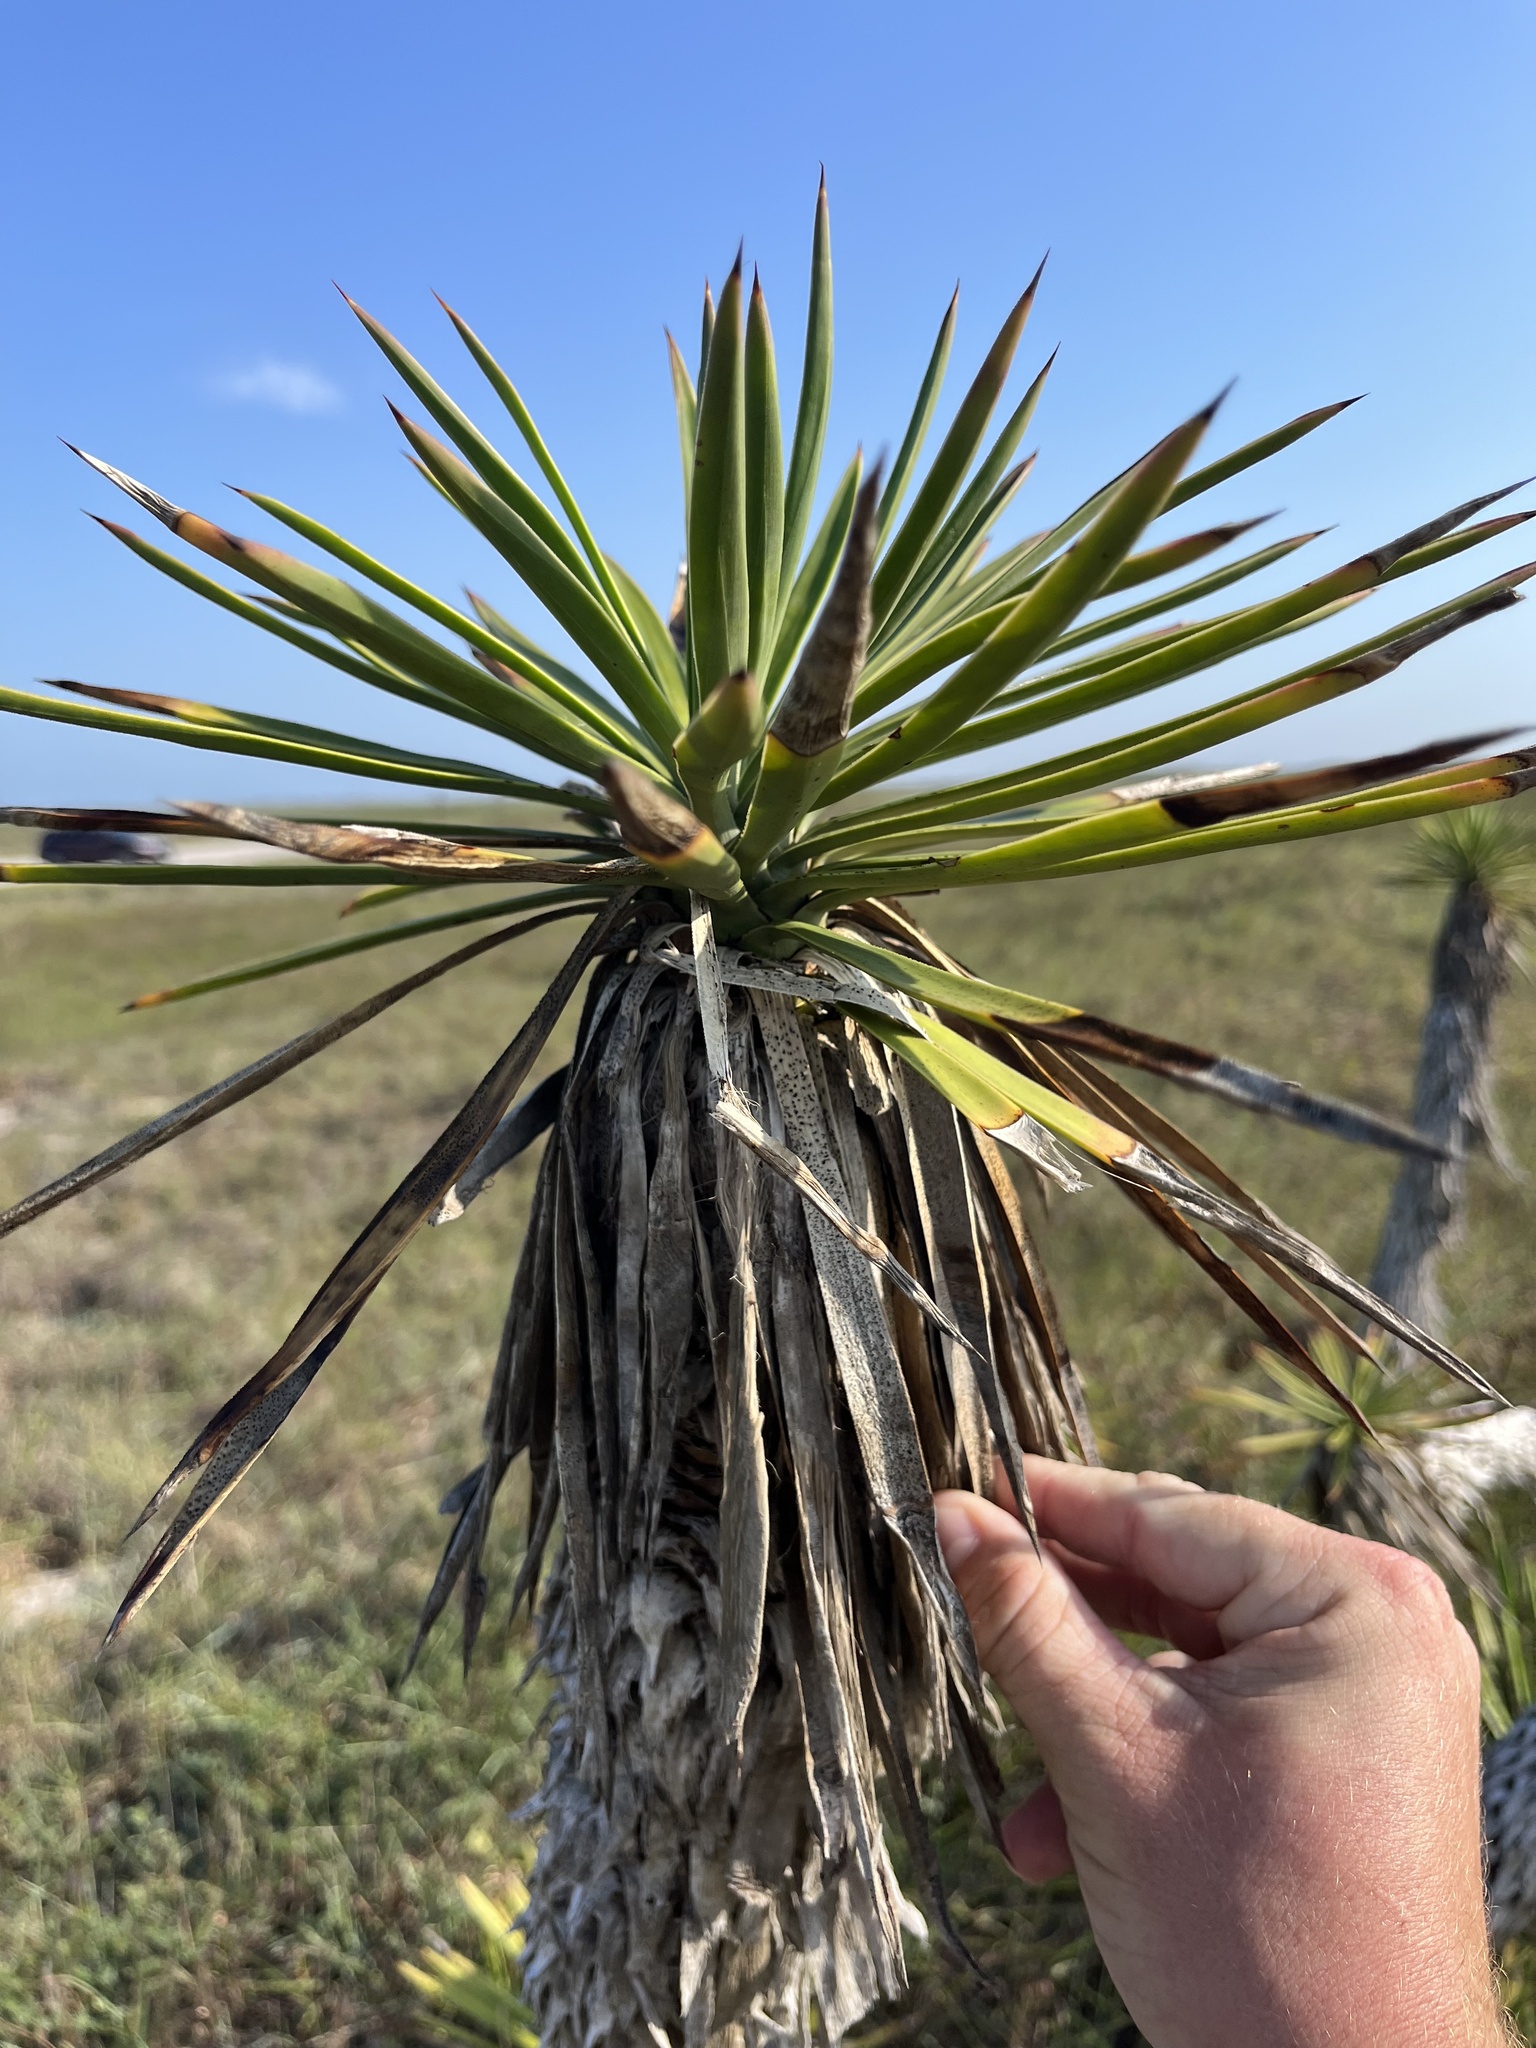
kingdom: Plantae
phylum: Tracheophyta
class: Liliopsida
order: Asparagales
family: Asparagaceae
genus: Yucca
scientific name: Yucca aloifolia
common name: Aloe yucca
